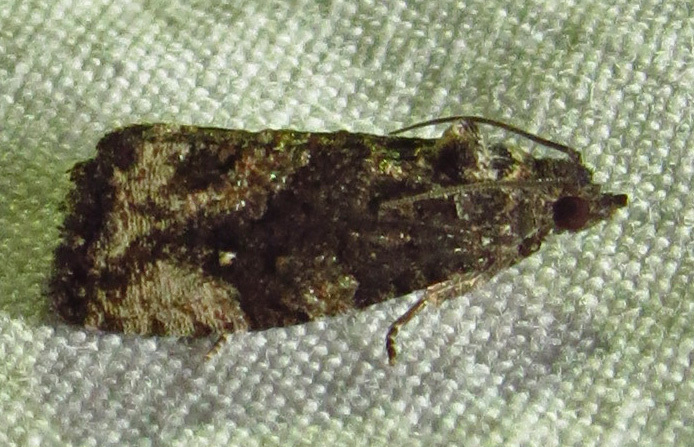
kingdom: Animalia
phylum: Arthropoda
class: Insecta
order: Lepidoptera
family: Tortricidae
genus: Gymnandrosoma
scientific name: Gymnandrosoma punctidiscanum
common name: Dotted ecdytolopha moth
